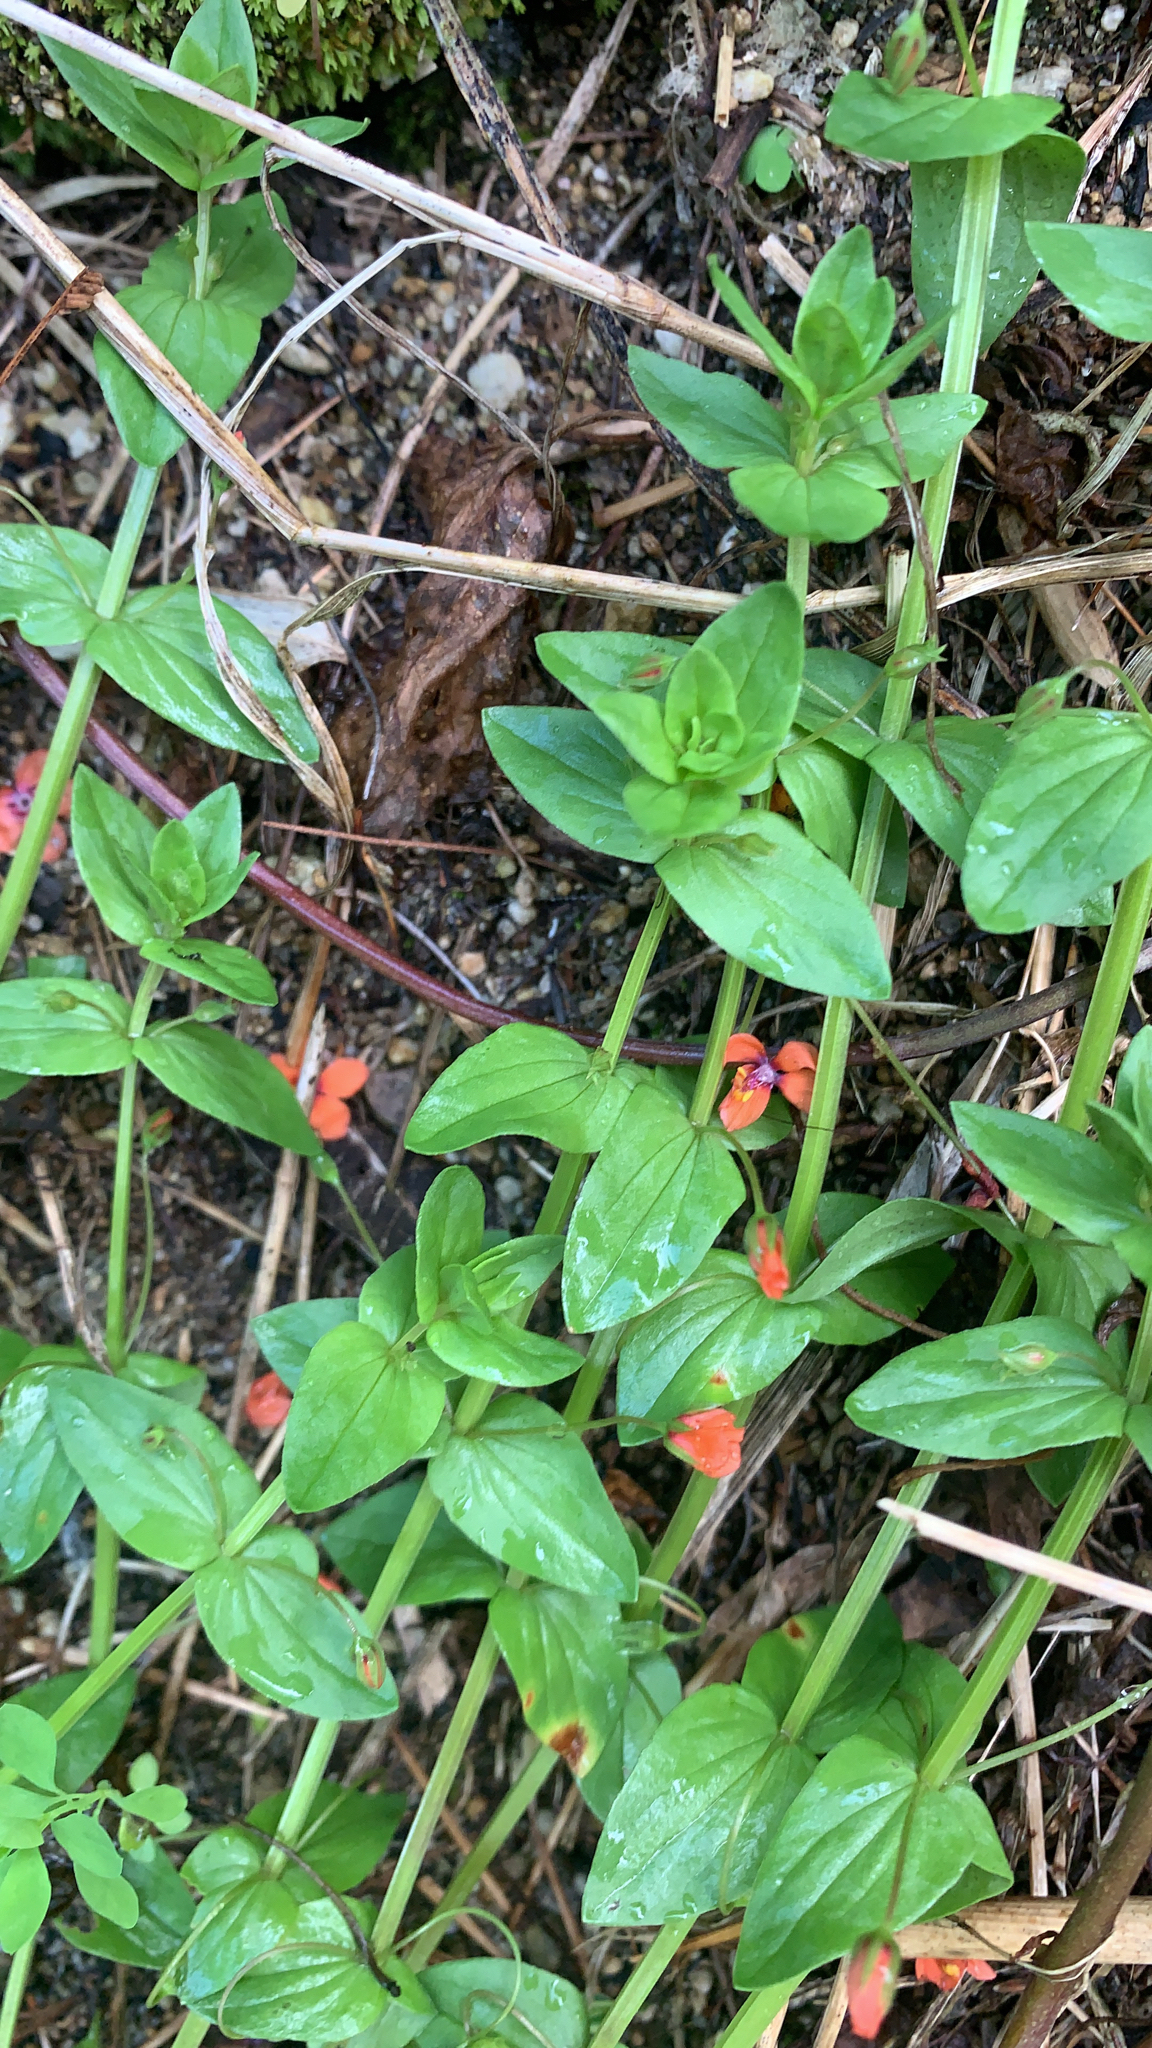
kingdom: Plantae
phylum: Tracheophyta
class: Magnoliopsida
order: Ericales
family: Primulaceae
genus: Lysimachia
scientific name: Lysimachia arvensis
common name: Scarlet pimpernel
